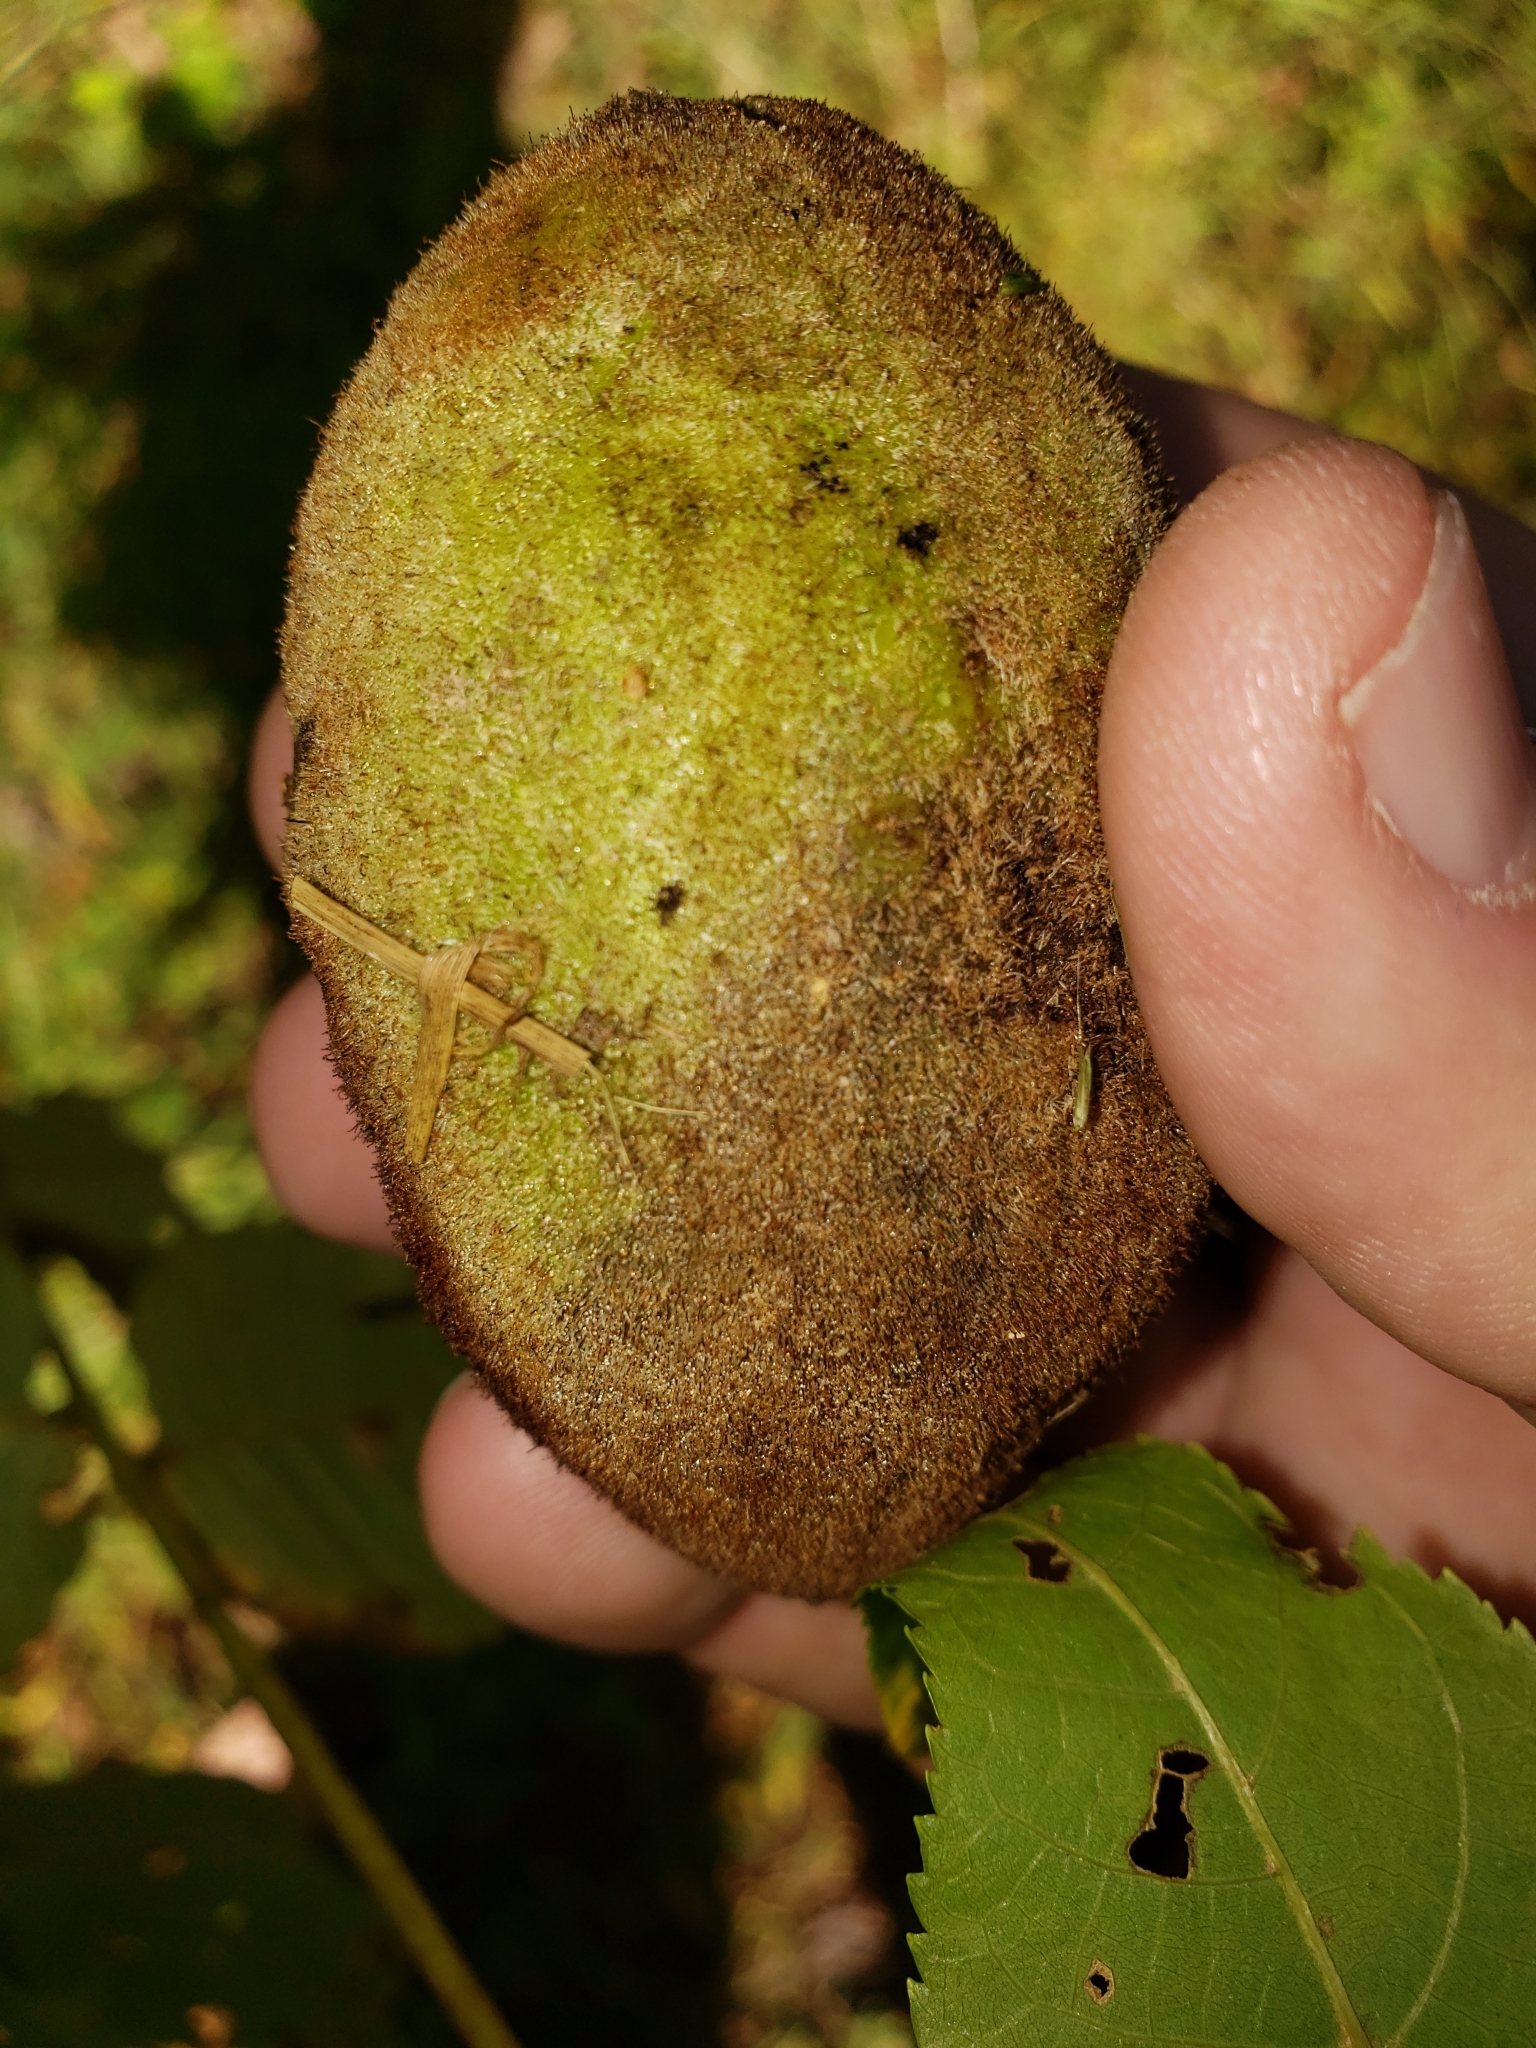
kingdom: Plantae
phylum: Tracheophyta
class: Magnoliopsida
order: Fagales
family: Juglandaceae
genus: Juglans
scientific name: Juglans cinerea
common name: Butternut
